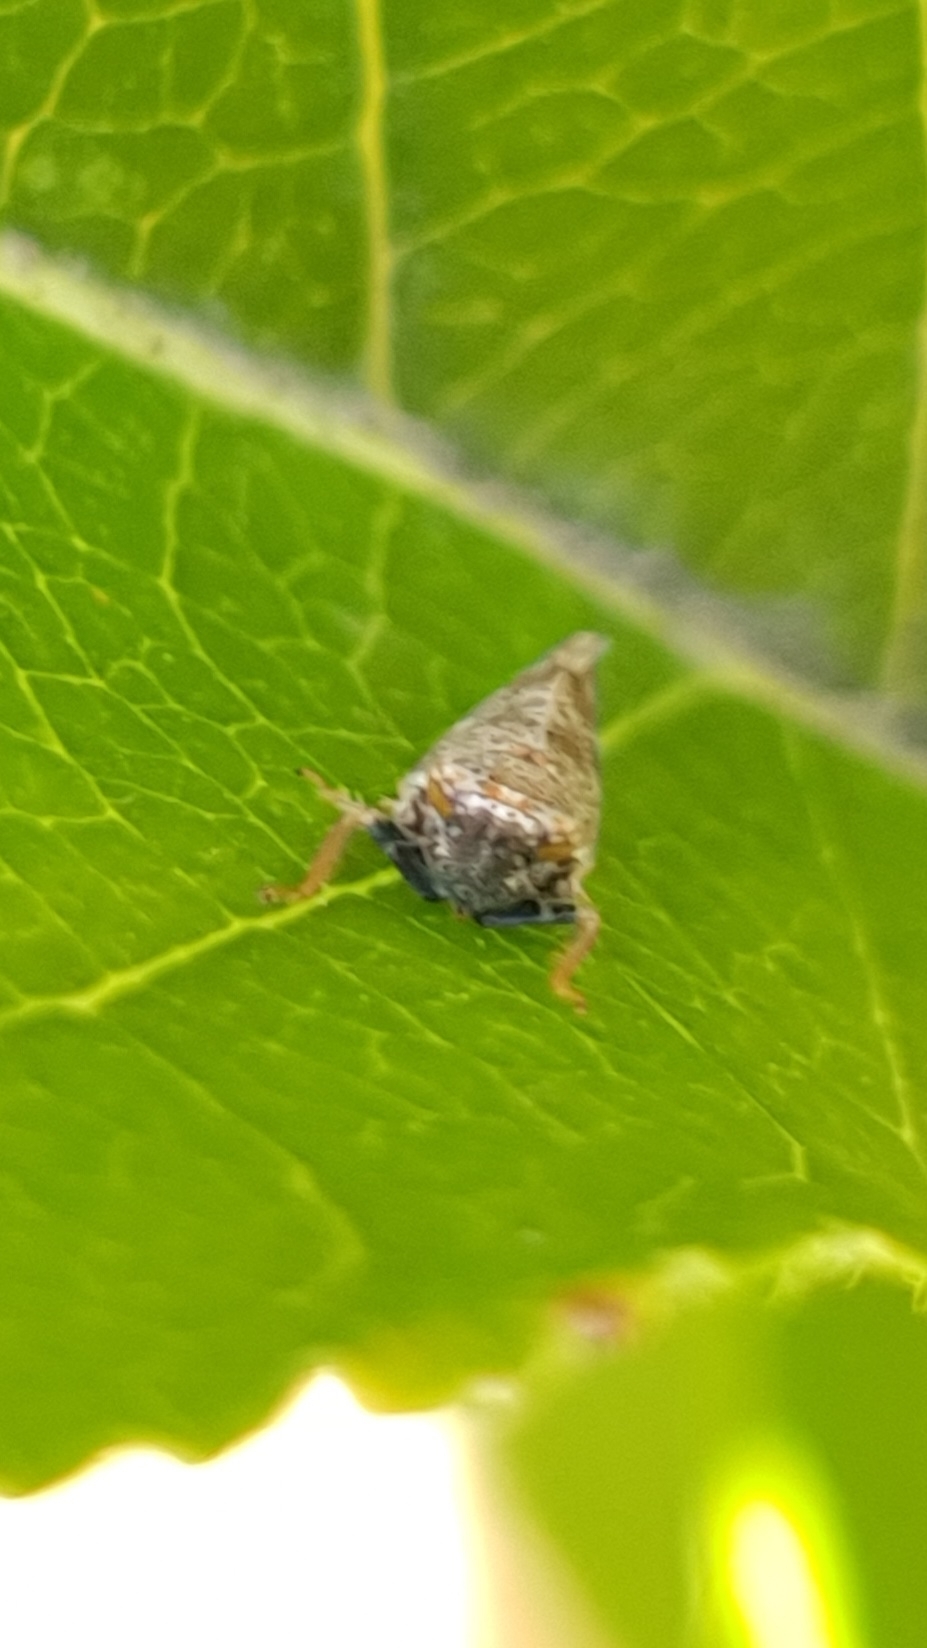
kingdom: Animalia
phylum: Arthropoda
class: Insecta
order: Hemiptera
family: Cicadellidae
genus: Orientus
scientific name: Orientus ishidae
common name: Japanese leafhopper
